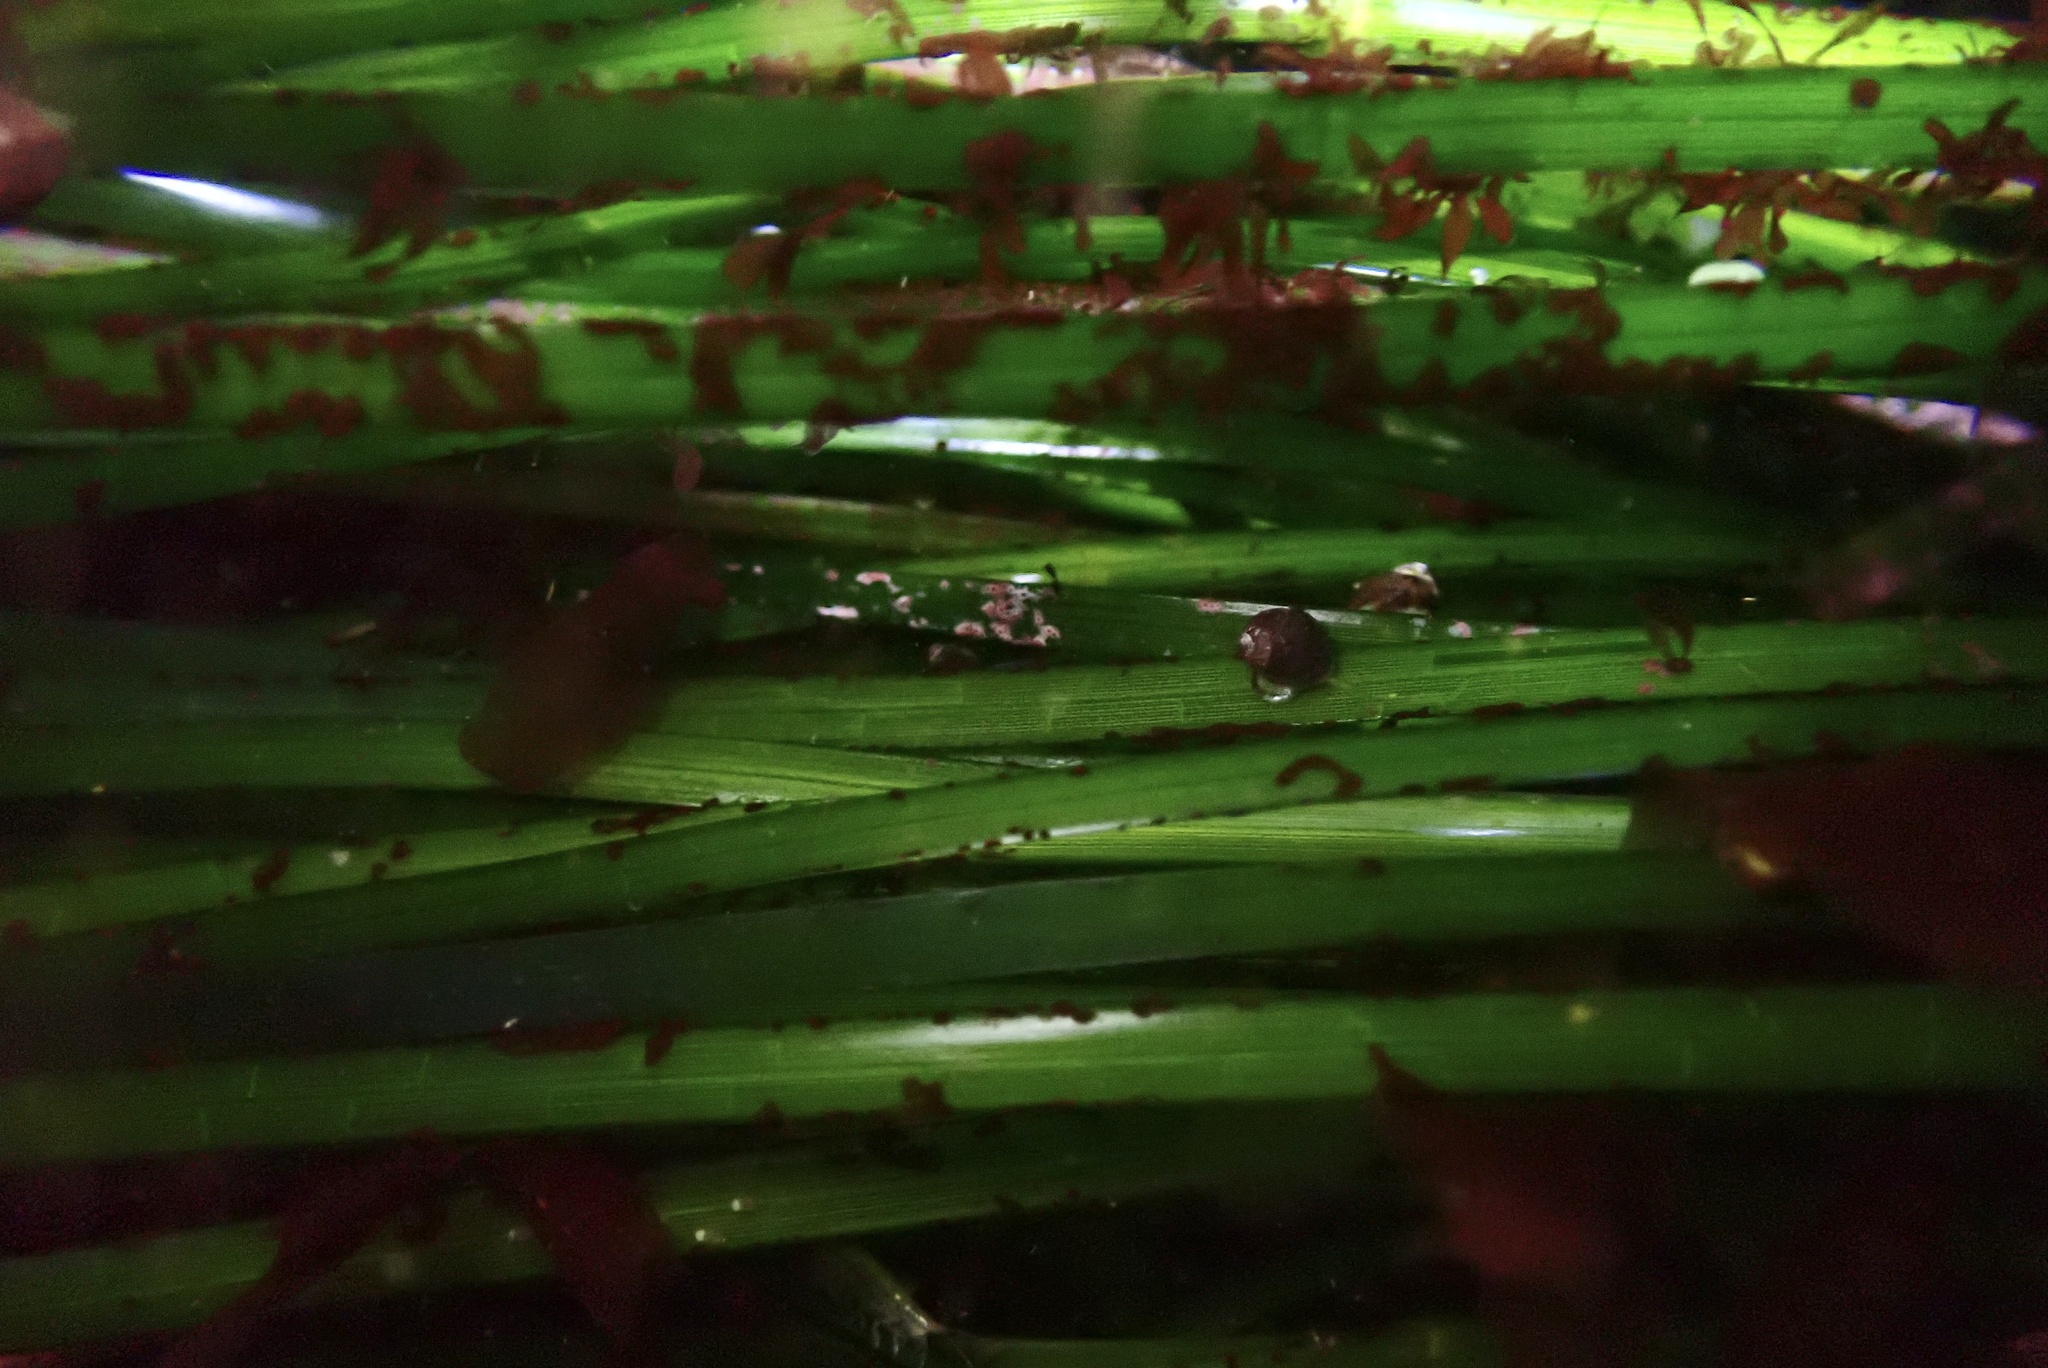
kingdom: Plantae
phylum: Tracheophyta
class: Liliopsida
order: Alismatales
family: Zosteraceae
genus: Phyllospadix
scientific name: Phyllospadix scouleri
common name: Species code: ps
